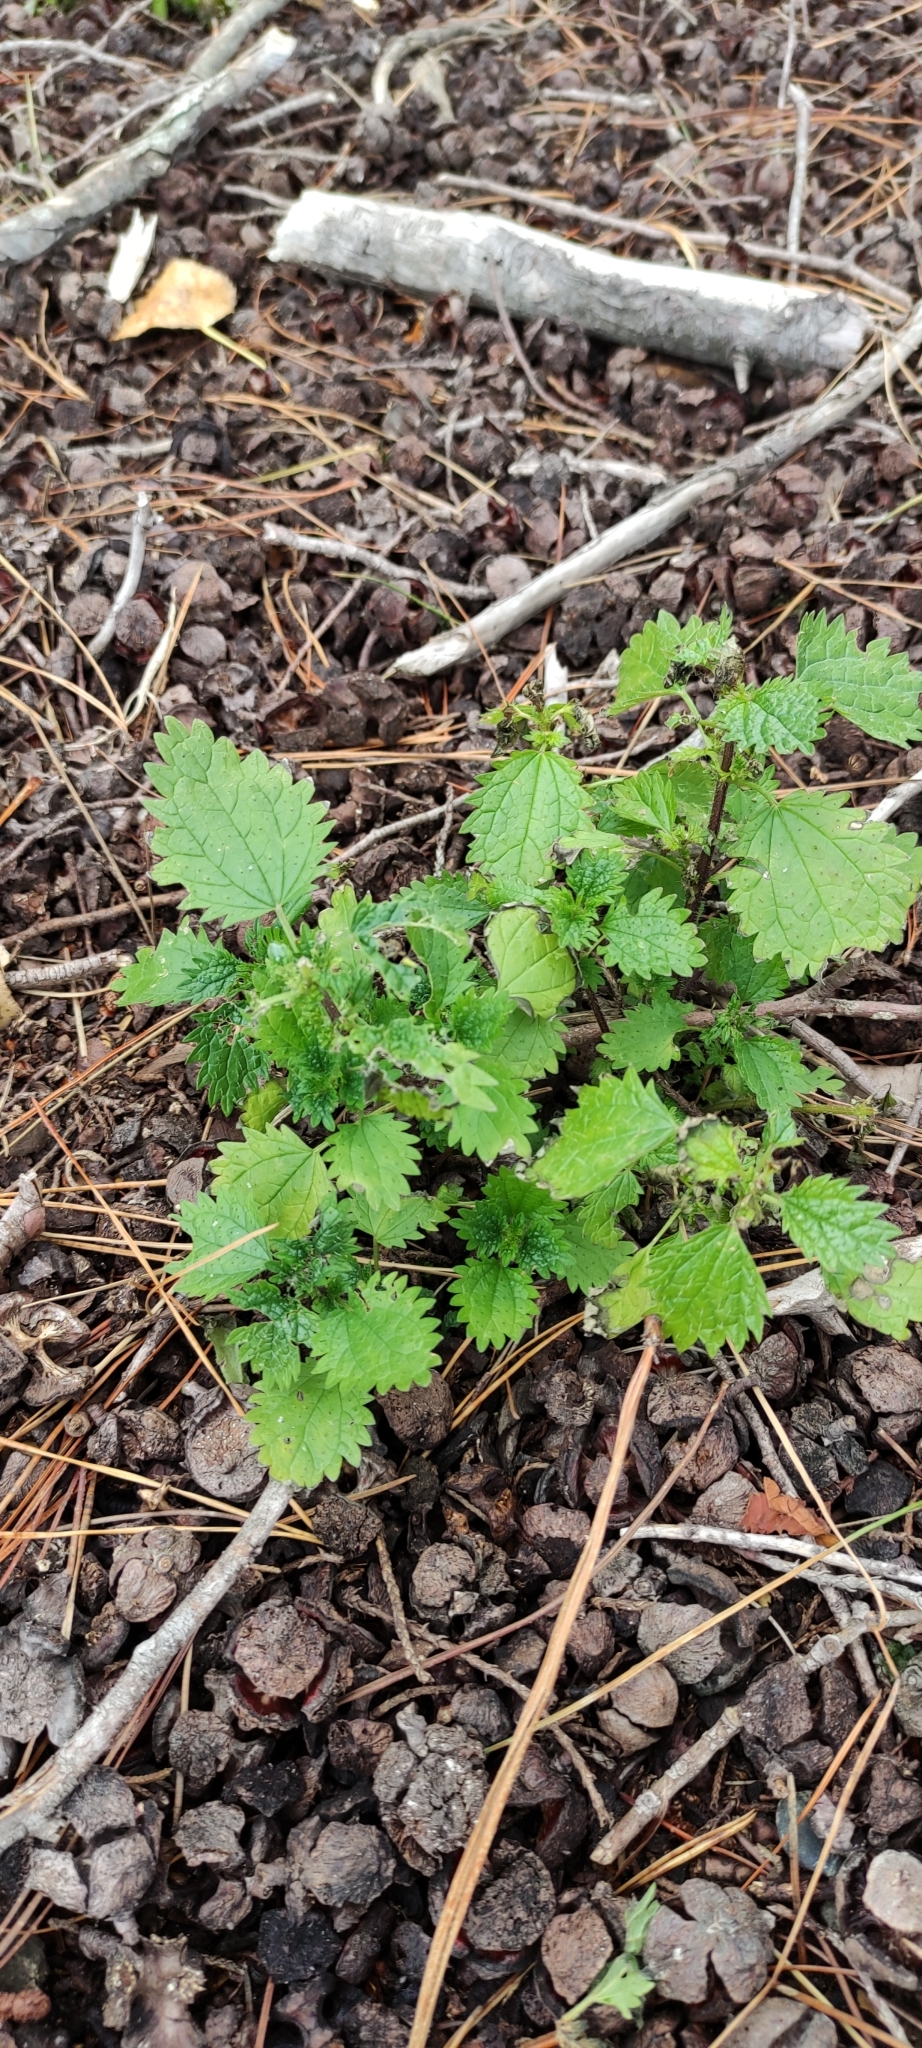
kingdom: Plantae
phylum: Tracheophyta
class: Magnoliopsida
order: Rosales
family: Urticaceae
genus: Urtica
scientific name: Urtica urens
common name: Dwarf nettle
